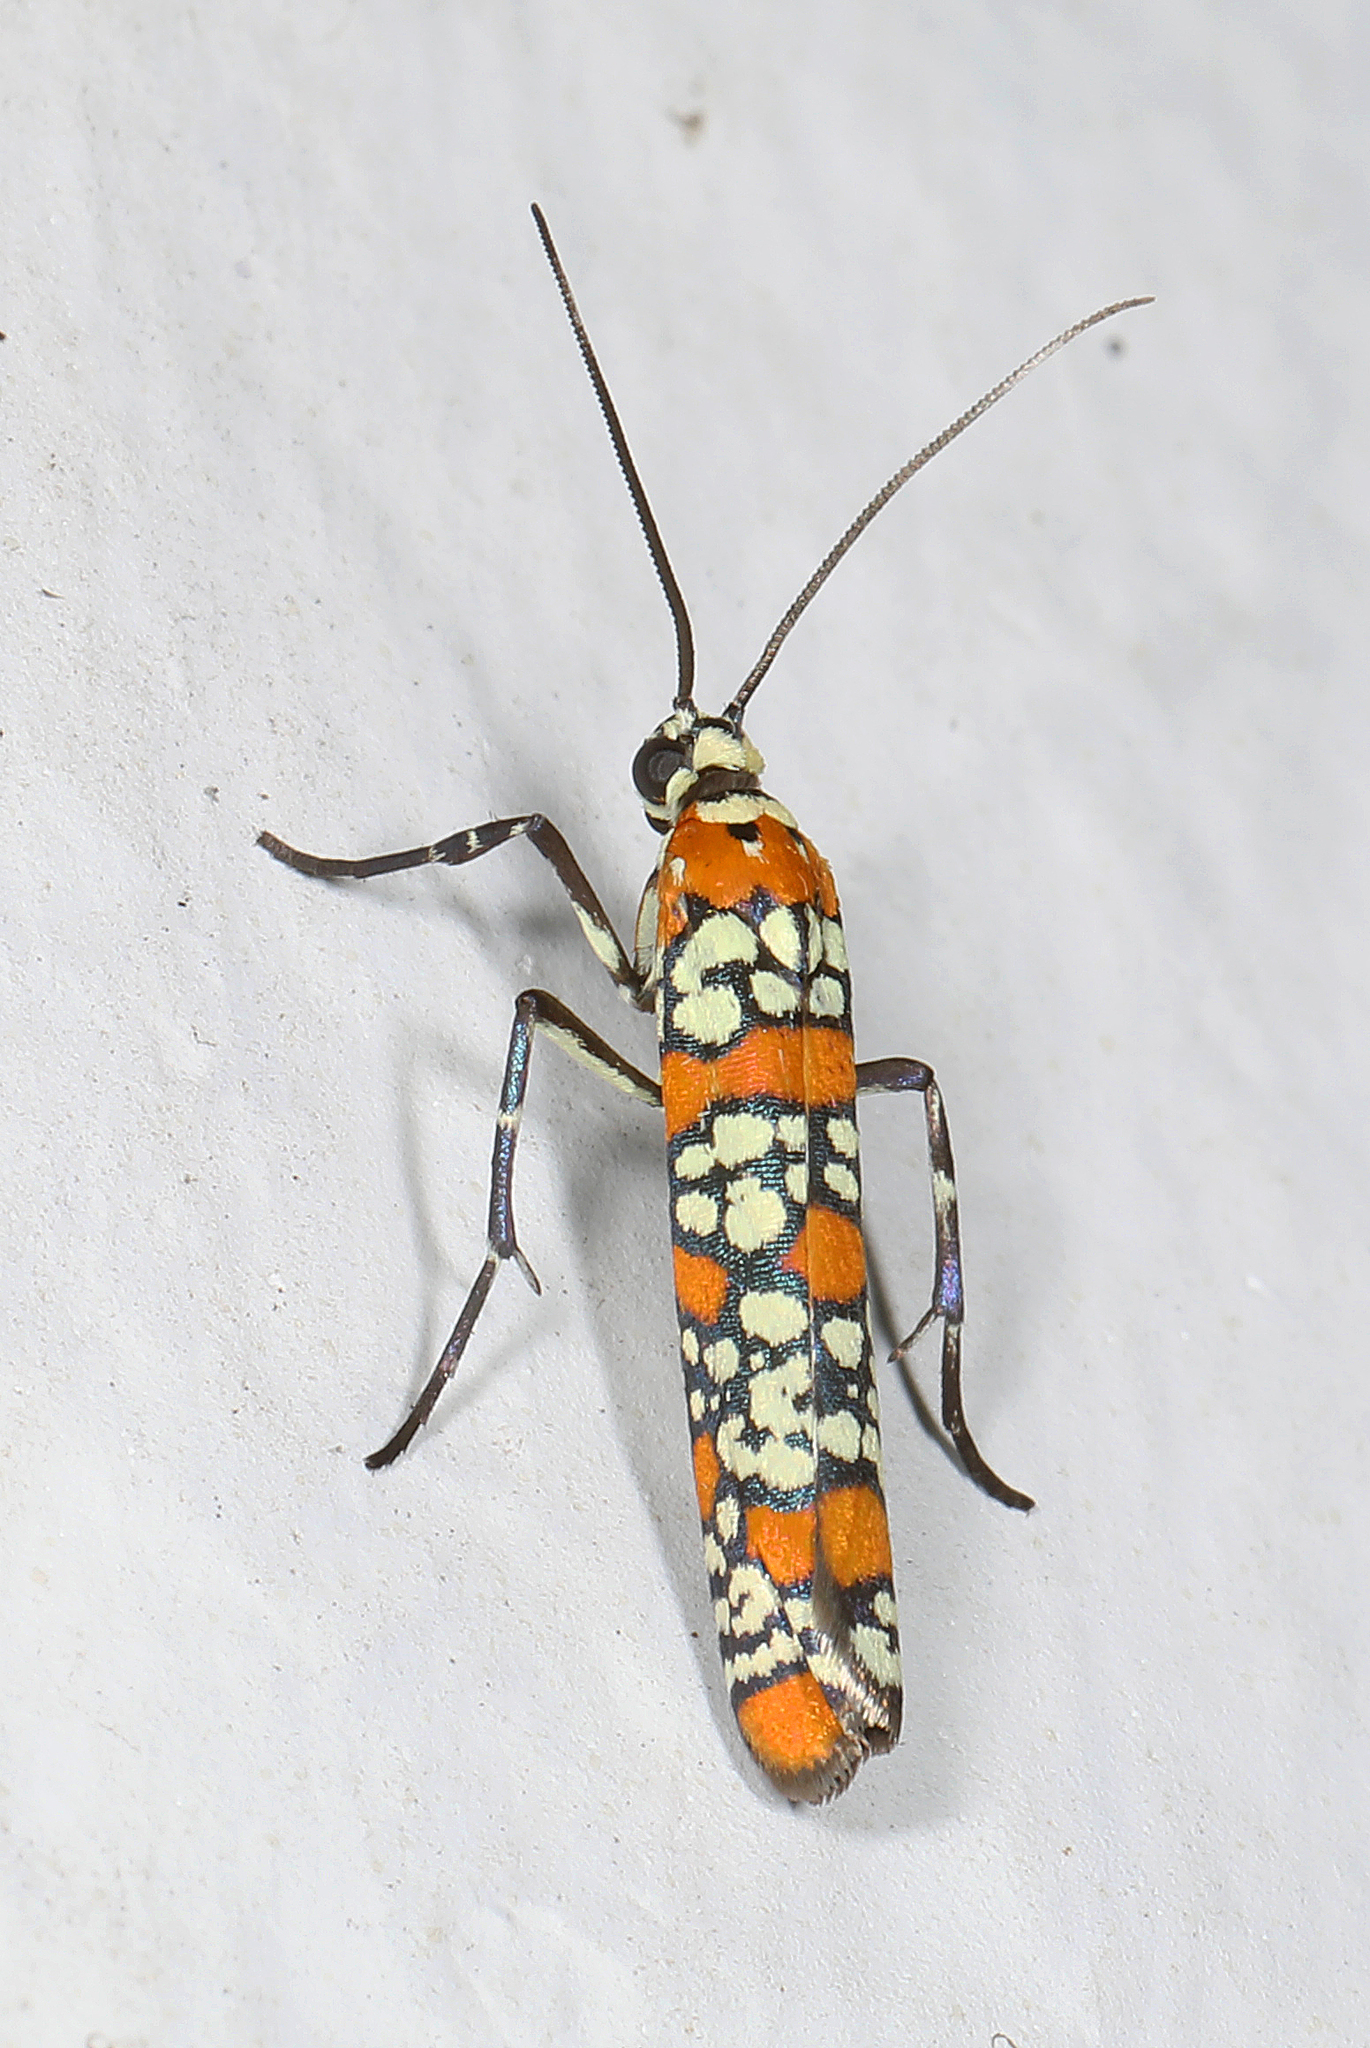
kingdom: Animalia
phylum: Arthropoda
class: Insecta
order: Lepidoptera
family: Attevidae
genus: Atteva
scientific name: Atteva punctella
